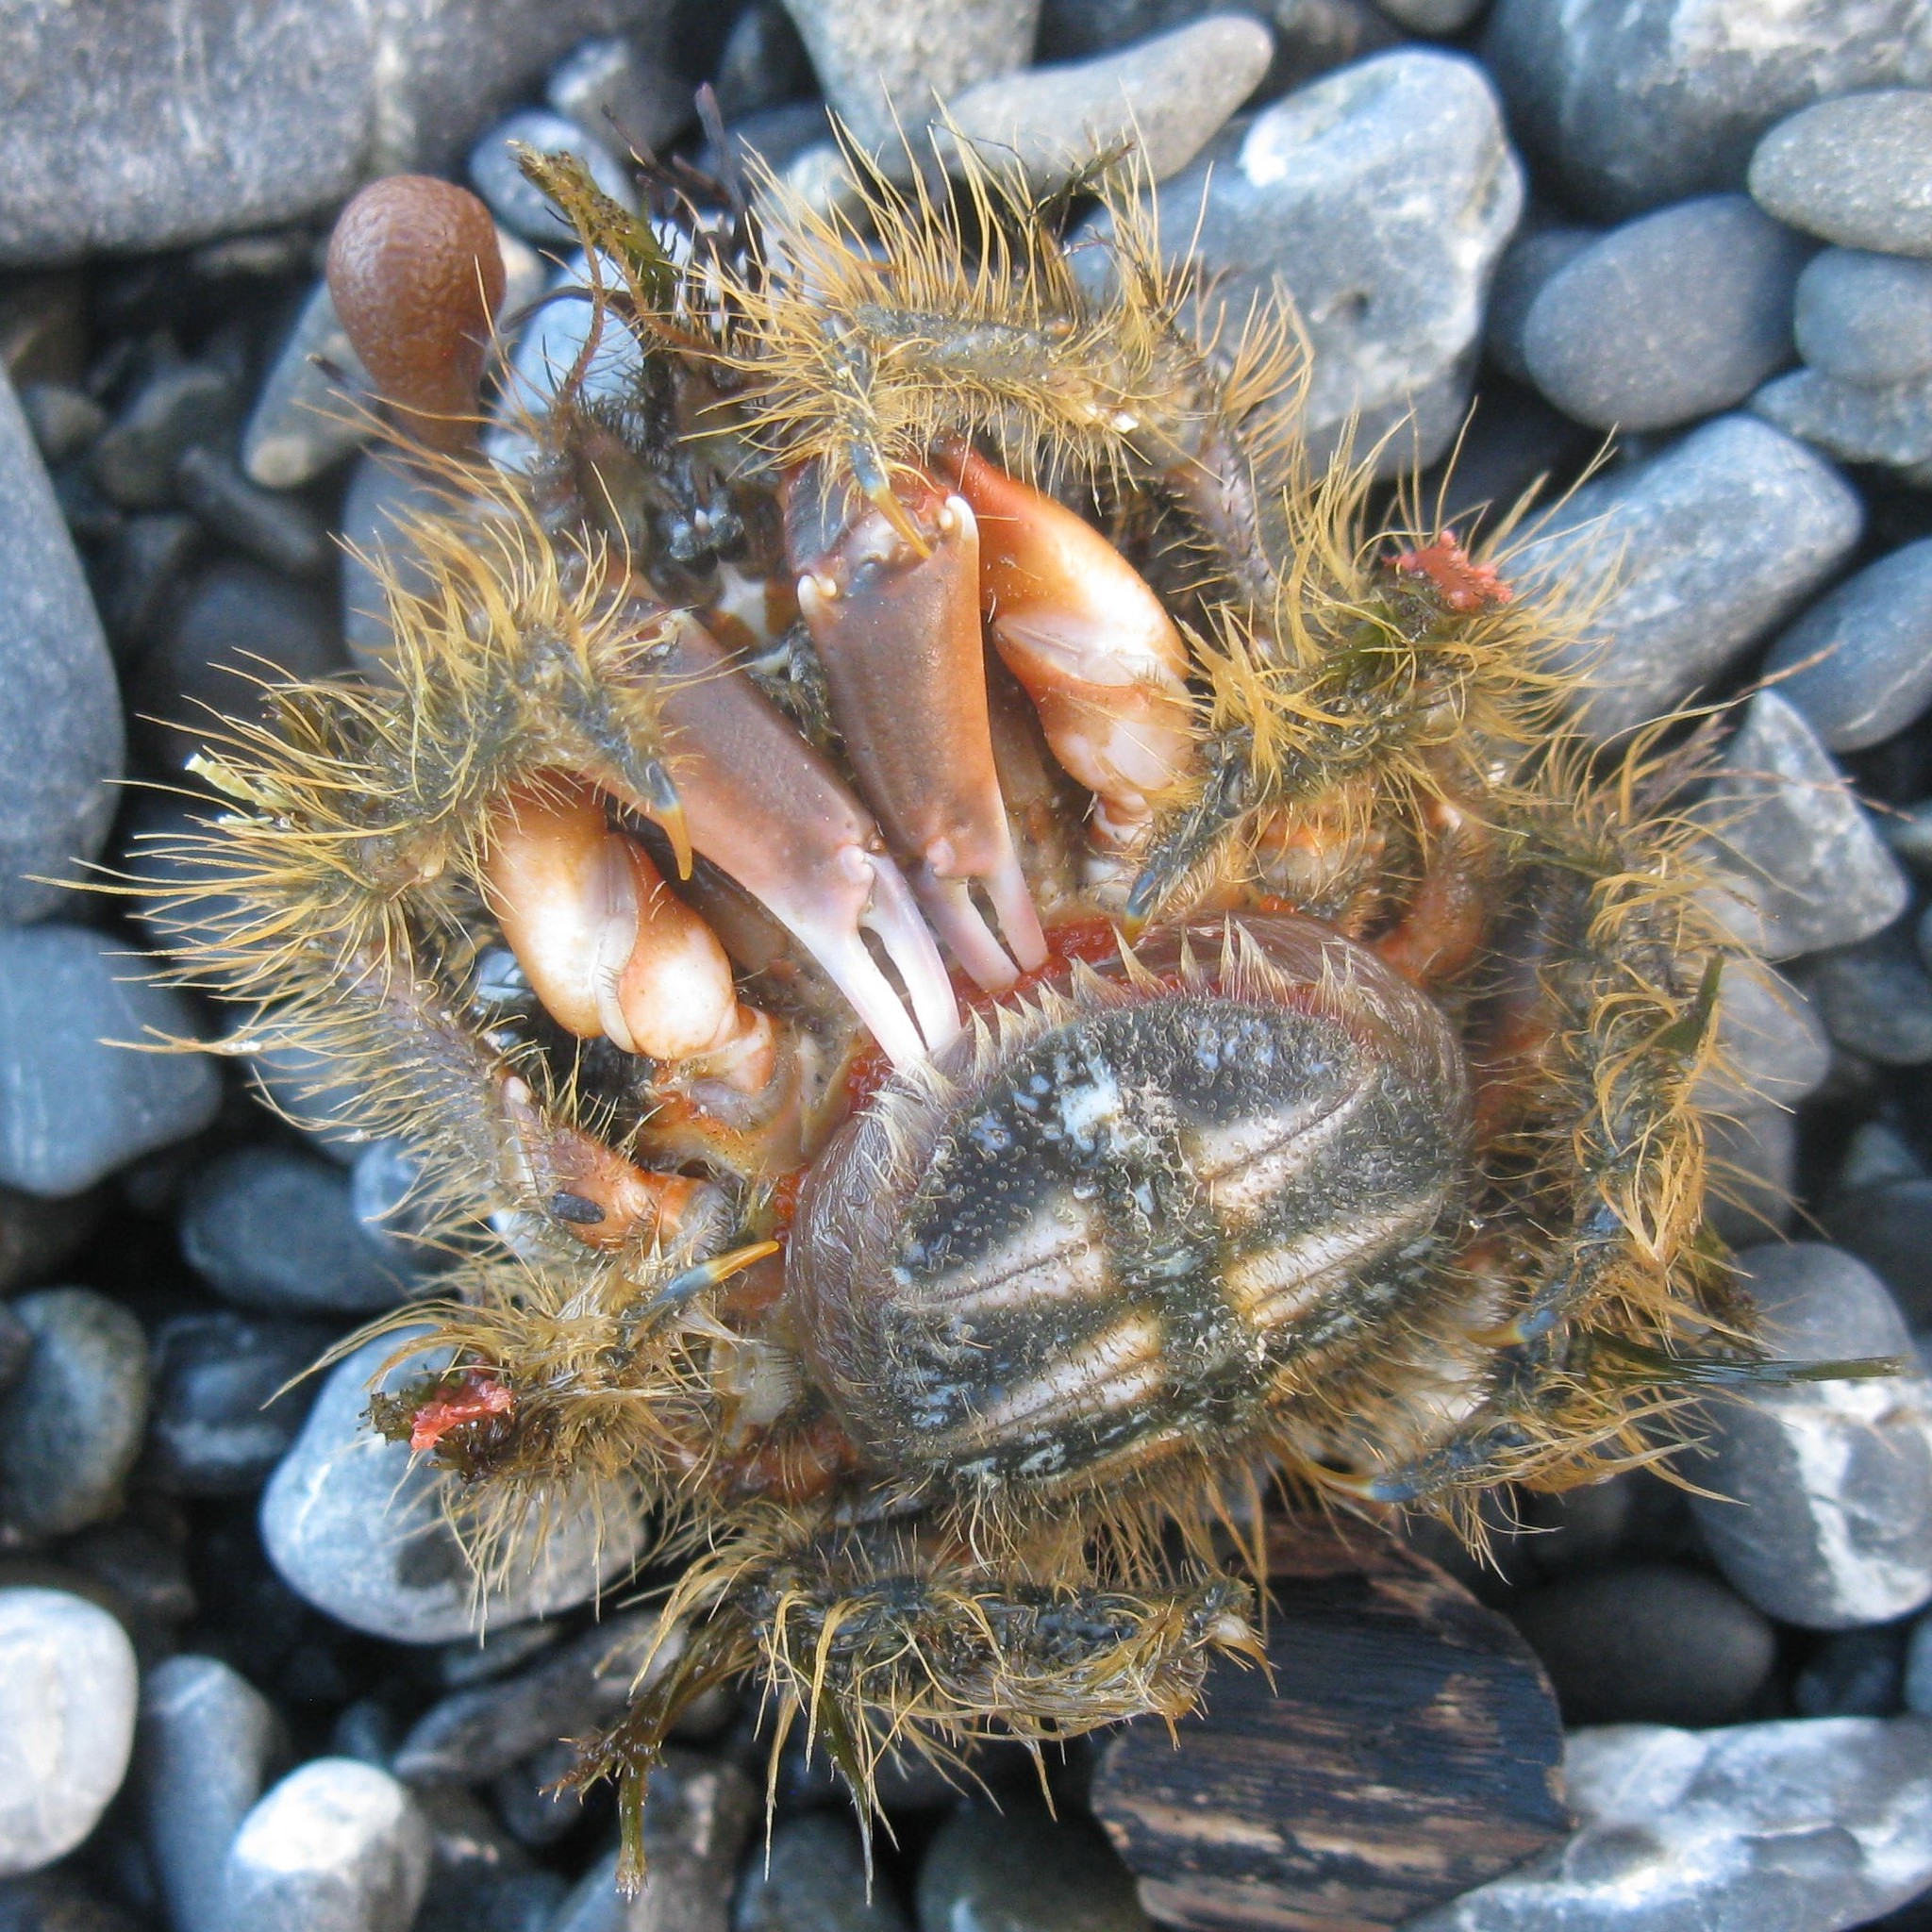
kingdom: Animalia
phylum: Arthropoda
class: Malacostraca
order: Decapoda
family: Majidae
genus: Notomithrax
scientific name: Notomithrax ursus
